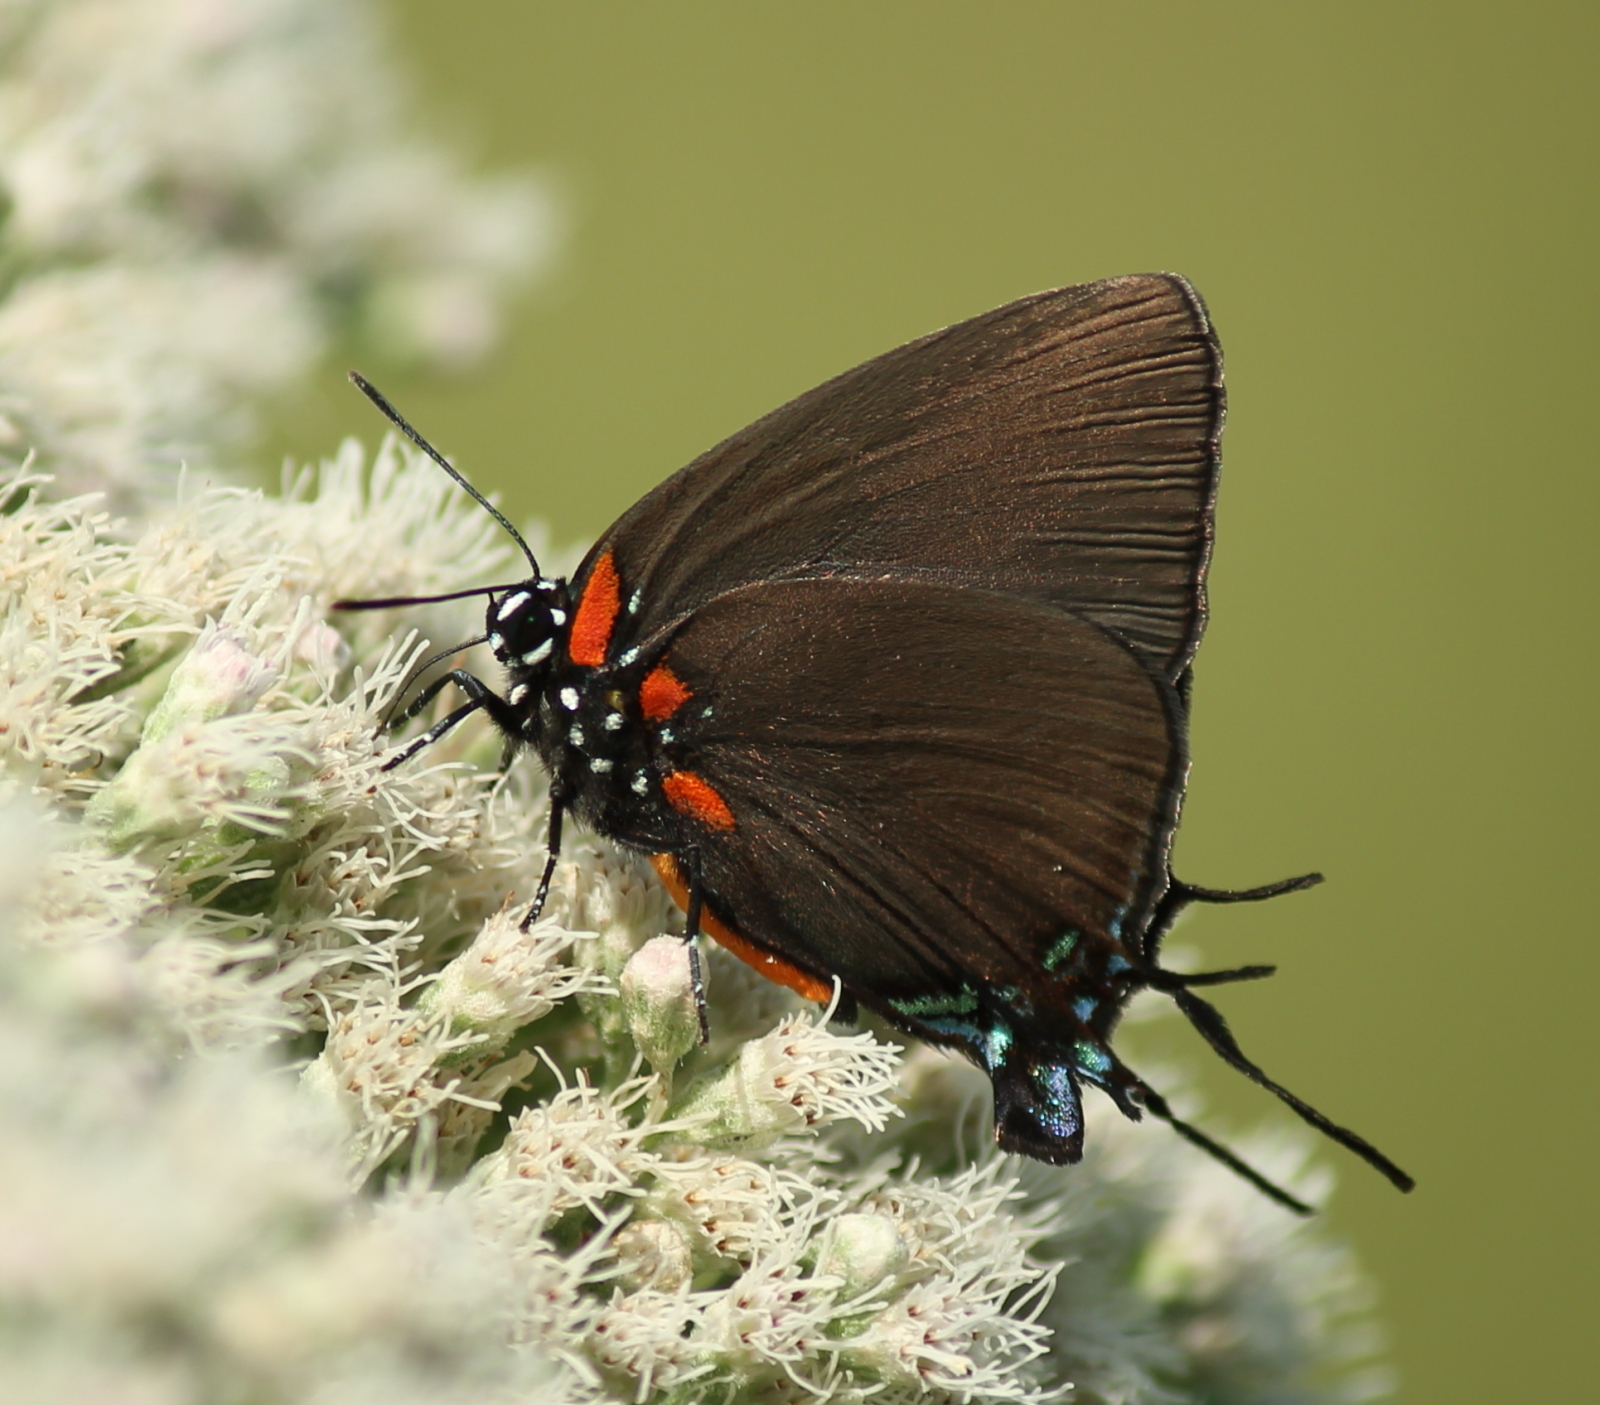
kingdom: Animalia
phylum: Arthropoda
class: Insecta
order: Lepidoptera
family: Lycaenidae
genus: Atlides
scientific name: Atlides halesus
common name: Great purple hairstreak
